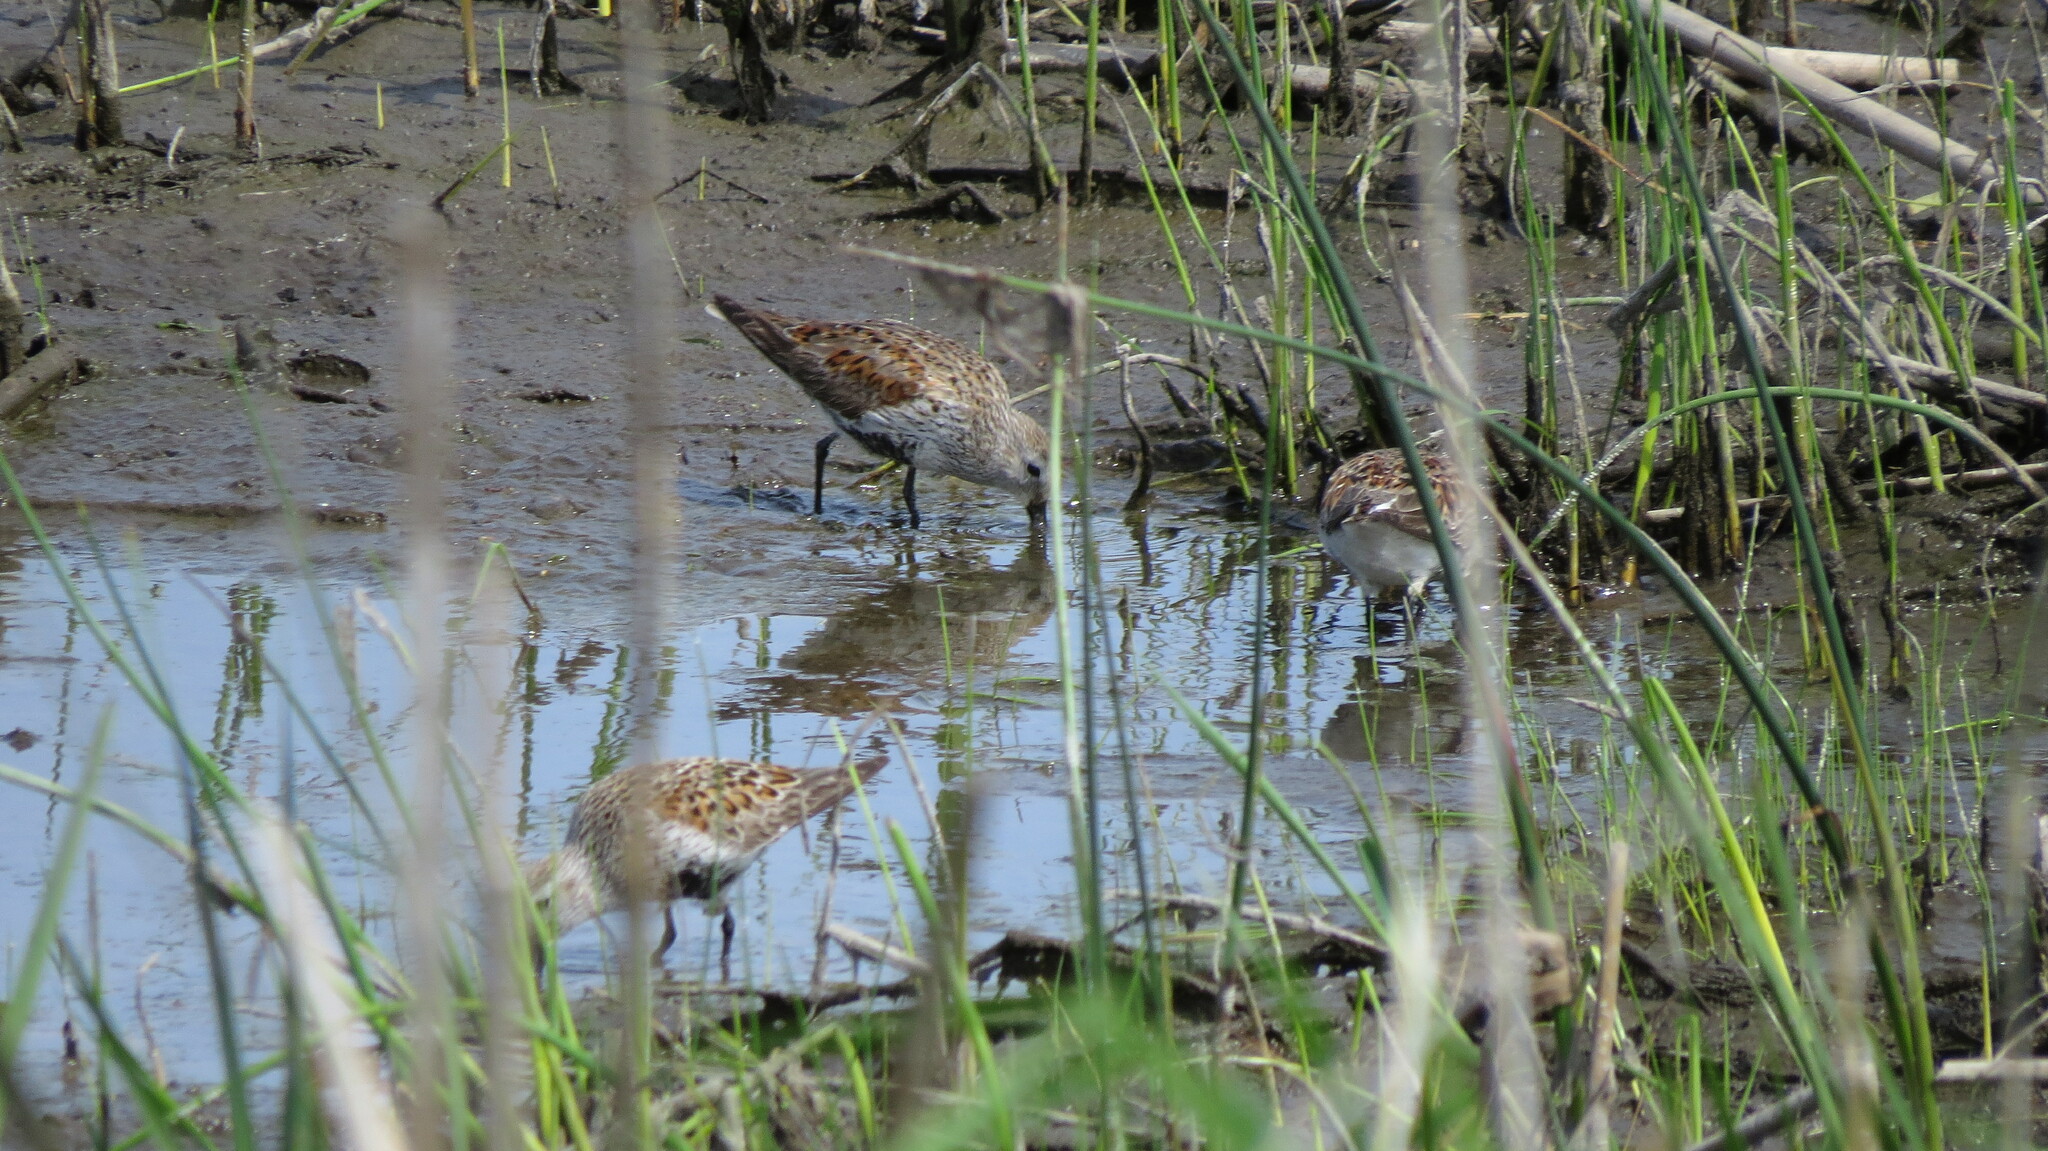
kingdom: Animalia
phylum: Chordata
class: Aves
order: Charadriiformes
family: Scolopacidae
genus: Calidris
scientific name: Calidris alpina
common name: Dunlin
